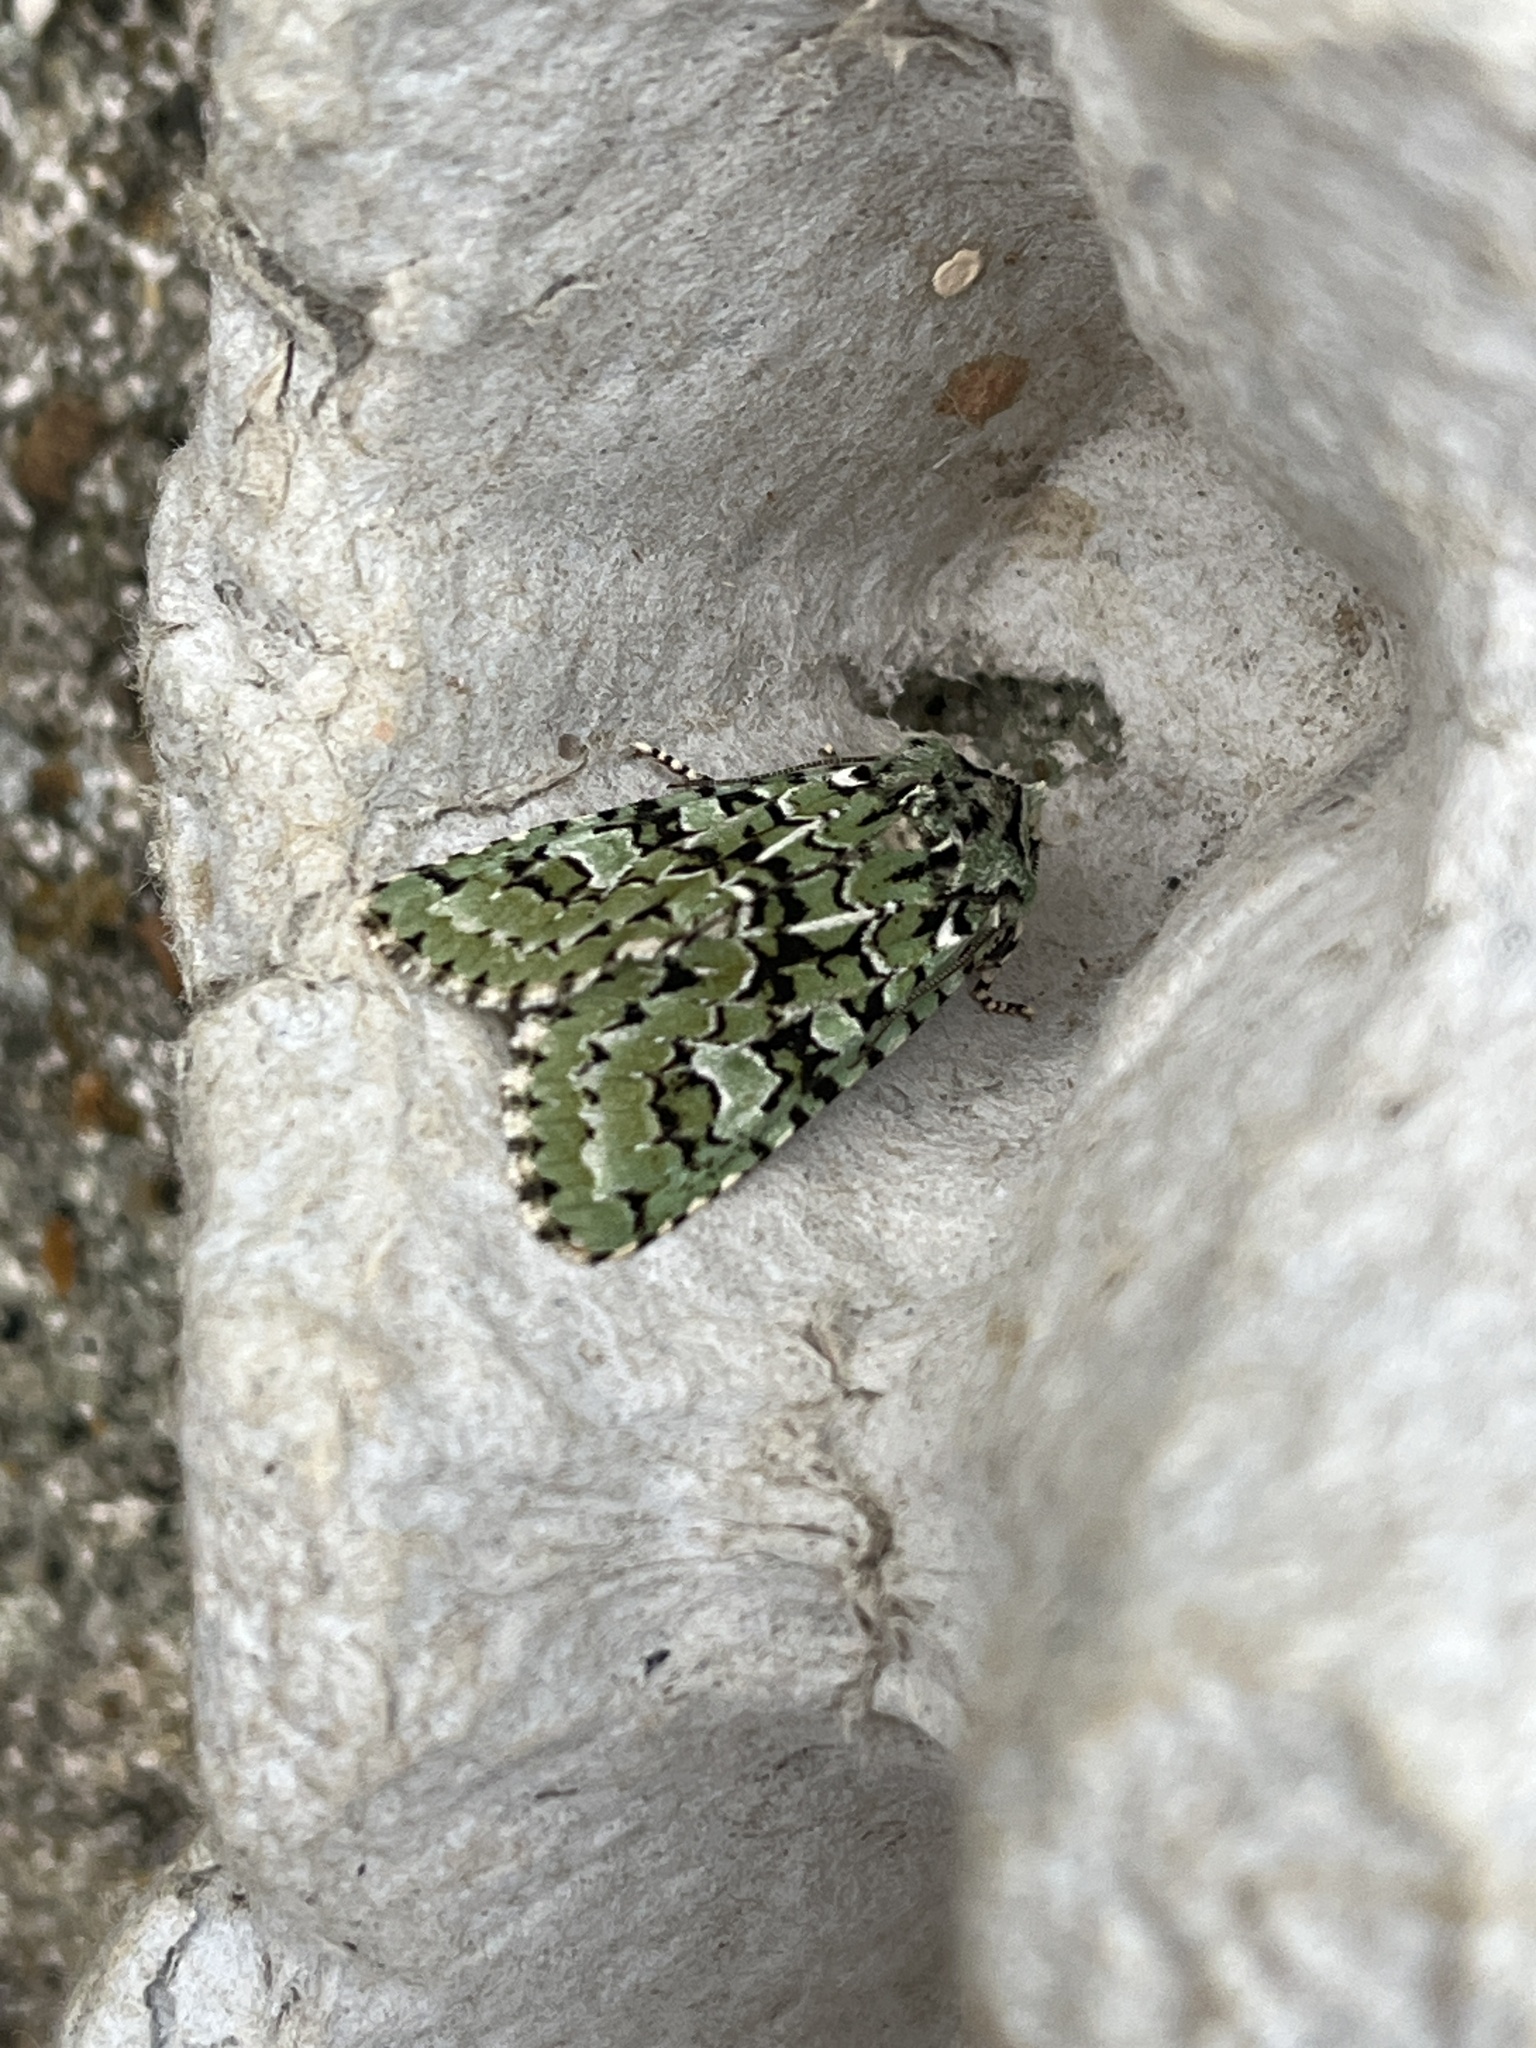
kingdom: Animalia
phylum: Arthropoda
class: Insecta
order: Lepidoptera
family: Noctuidae
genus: Griposia
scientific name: Griposia aprilina
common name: Merveille du jour
